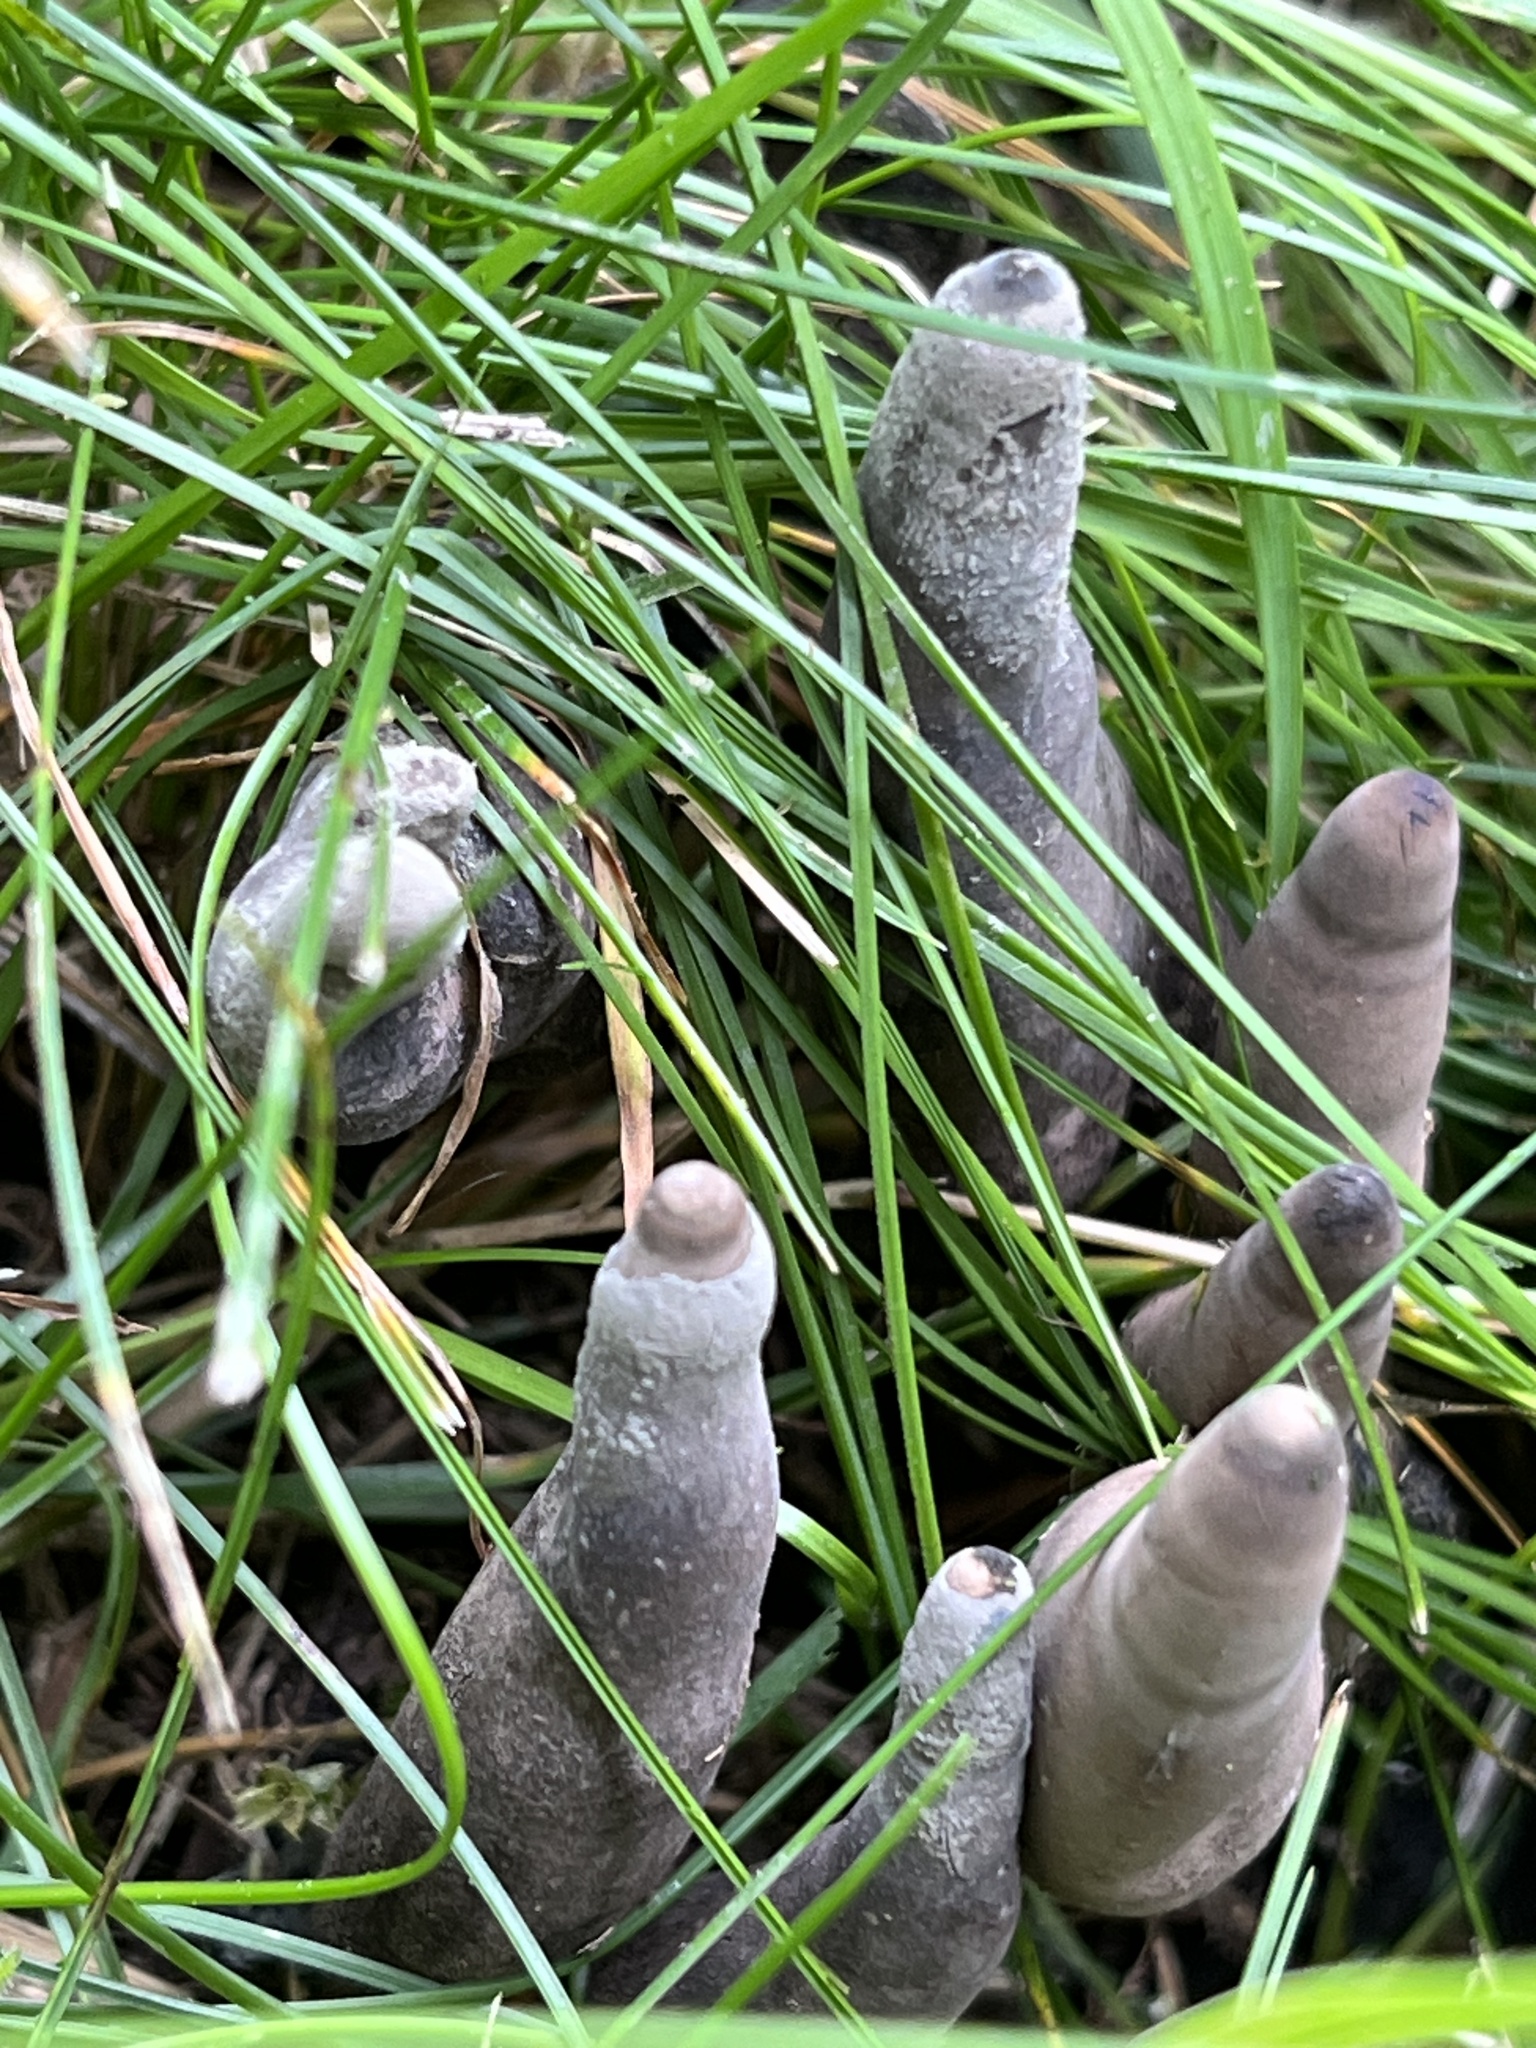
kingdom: Fungi
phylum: Ascomycota
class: Sordariomycetes
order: Xylariales
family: Xylariaceae
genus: Xylaria
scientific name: Xylaria polymorpha
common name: Dead man's fingers
